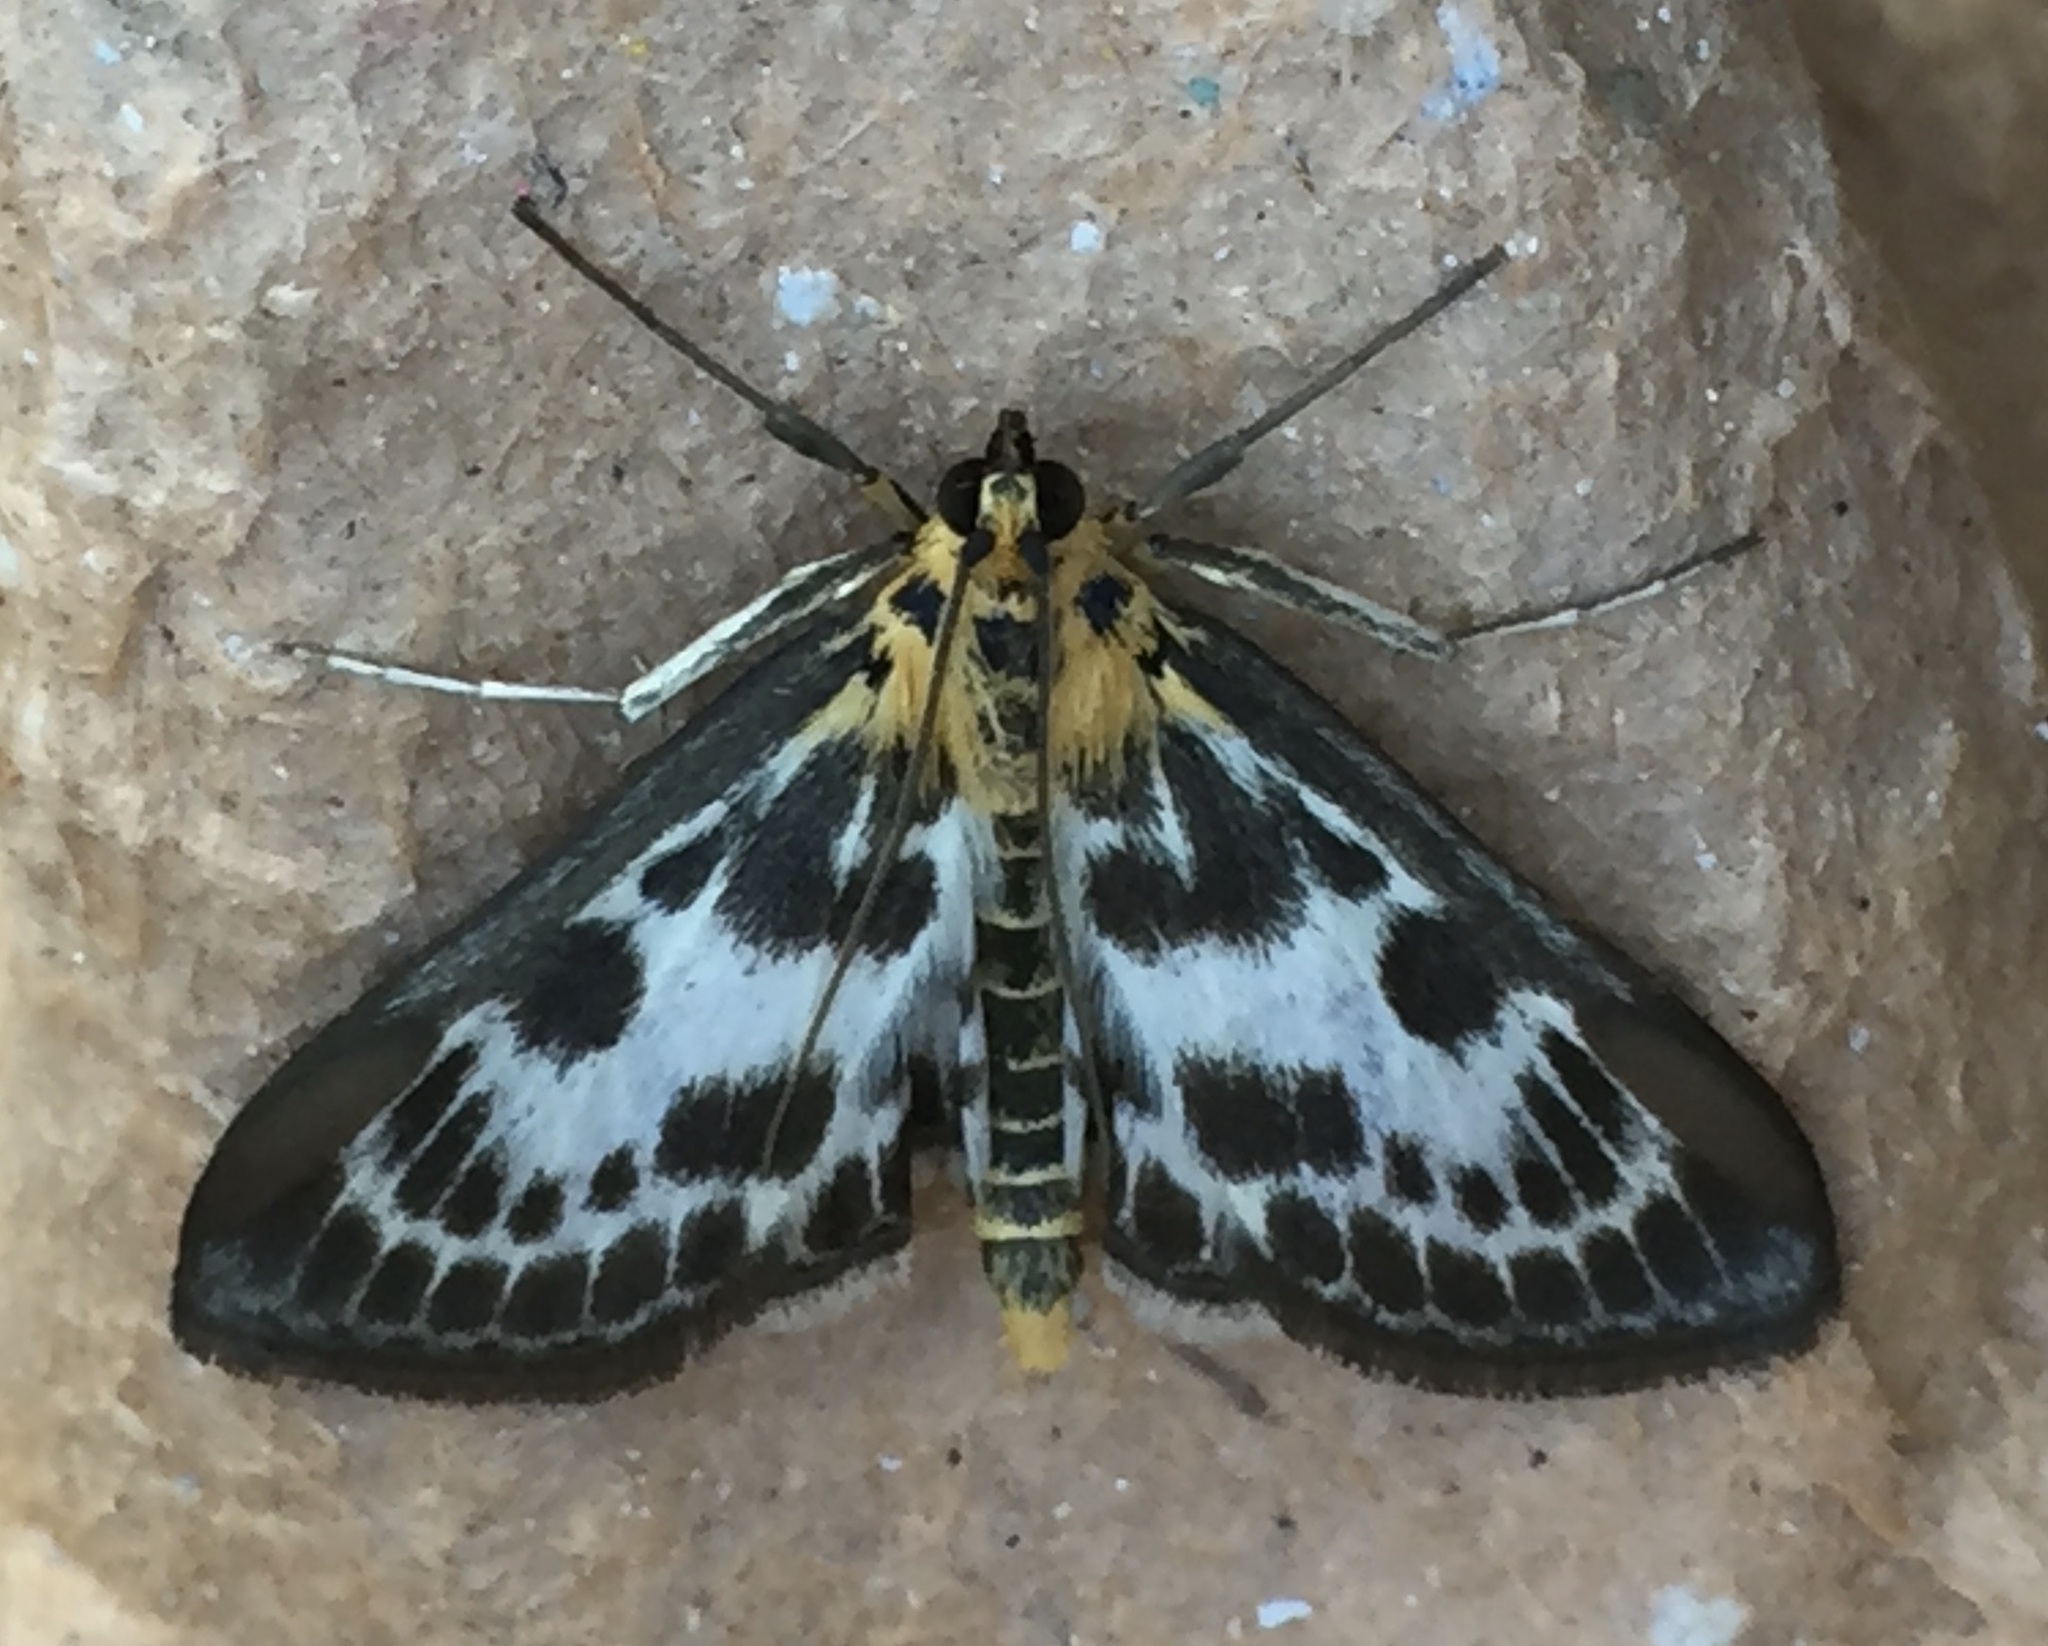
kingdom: Animalia
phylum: Arthropoda
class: Insecta
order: Lepidoptera
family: Crambidae
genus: Anania
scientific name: Anania hortulata
